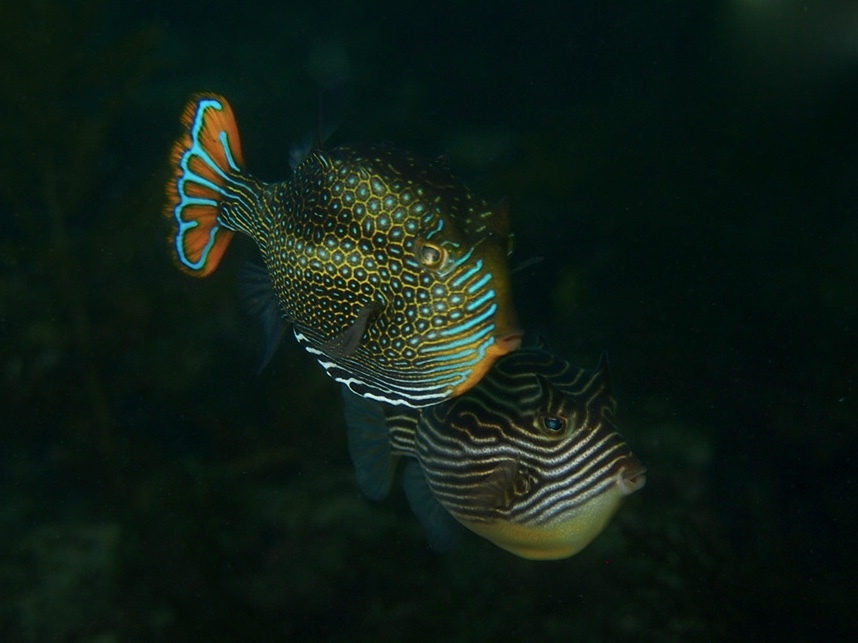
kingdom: Animalia
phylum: Chordata
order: Tetraodontiformes
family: Aracanidae
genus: Aracana
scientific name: Aracana ornata
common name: Ornate cowfish
